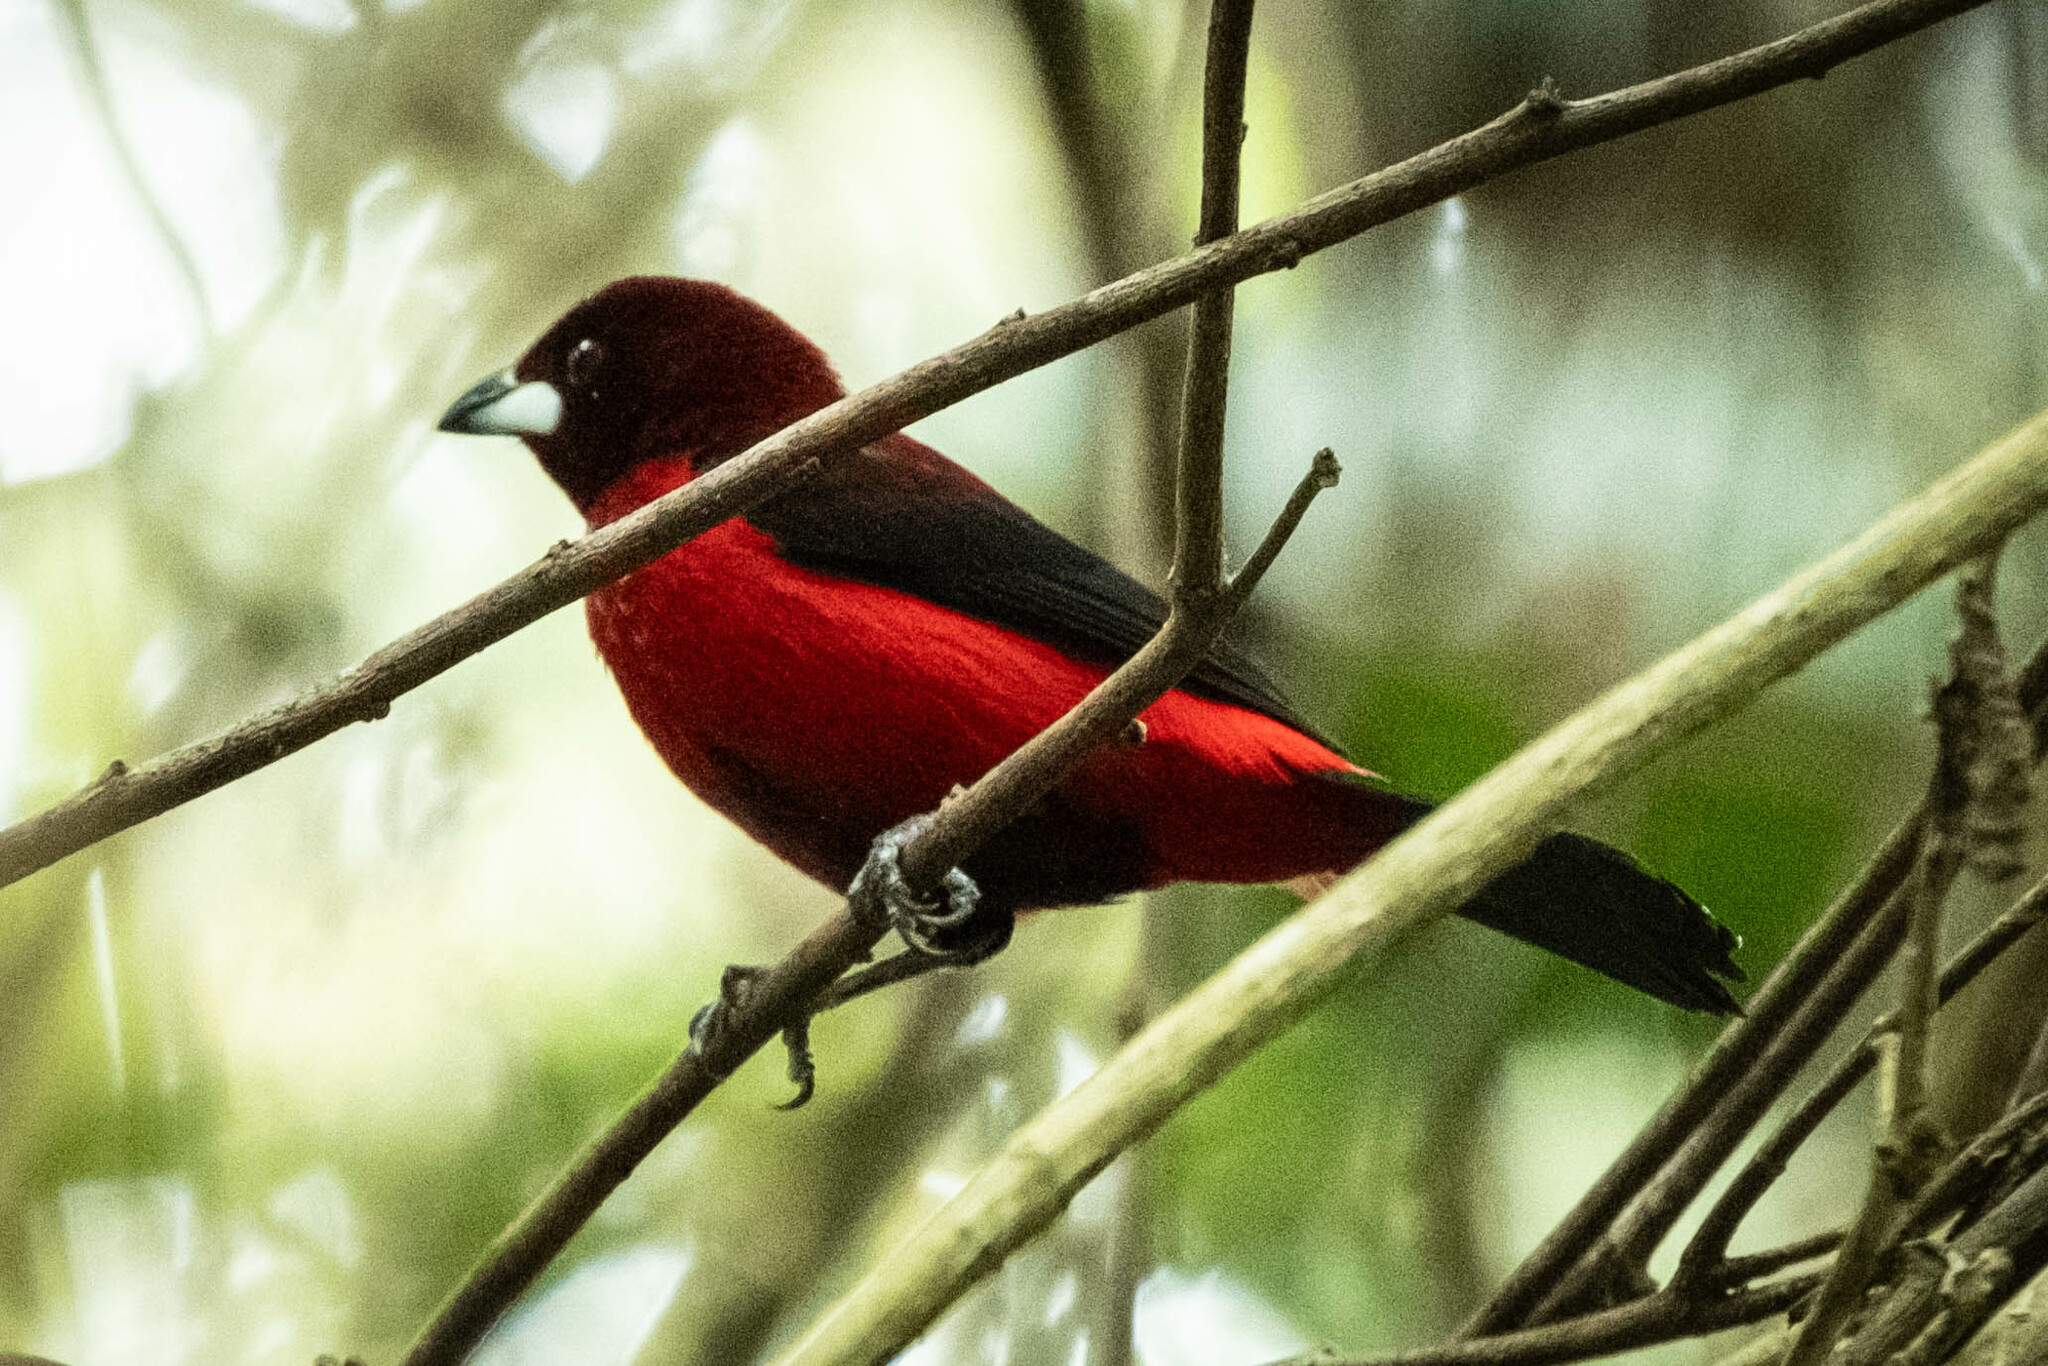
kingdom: Animalia
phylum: Chordata
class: Aves
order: Passeriformes
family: Thraupidae
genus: Ramphocelus
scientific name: Ramphocelus dimidiatus
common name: Crimson-backed tanager
